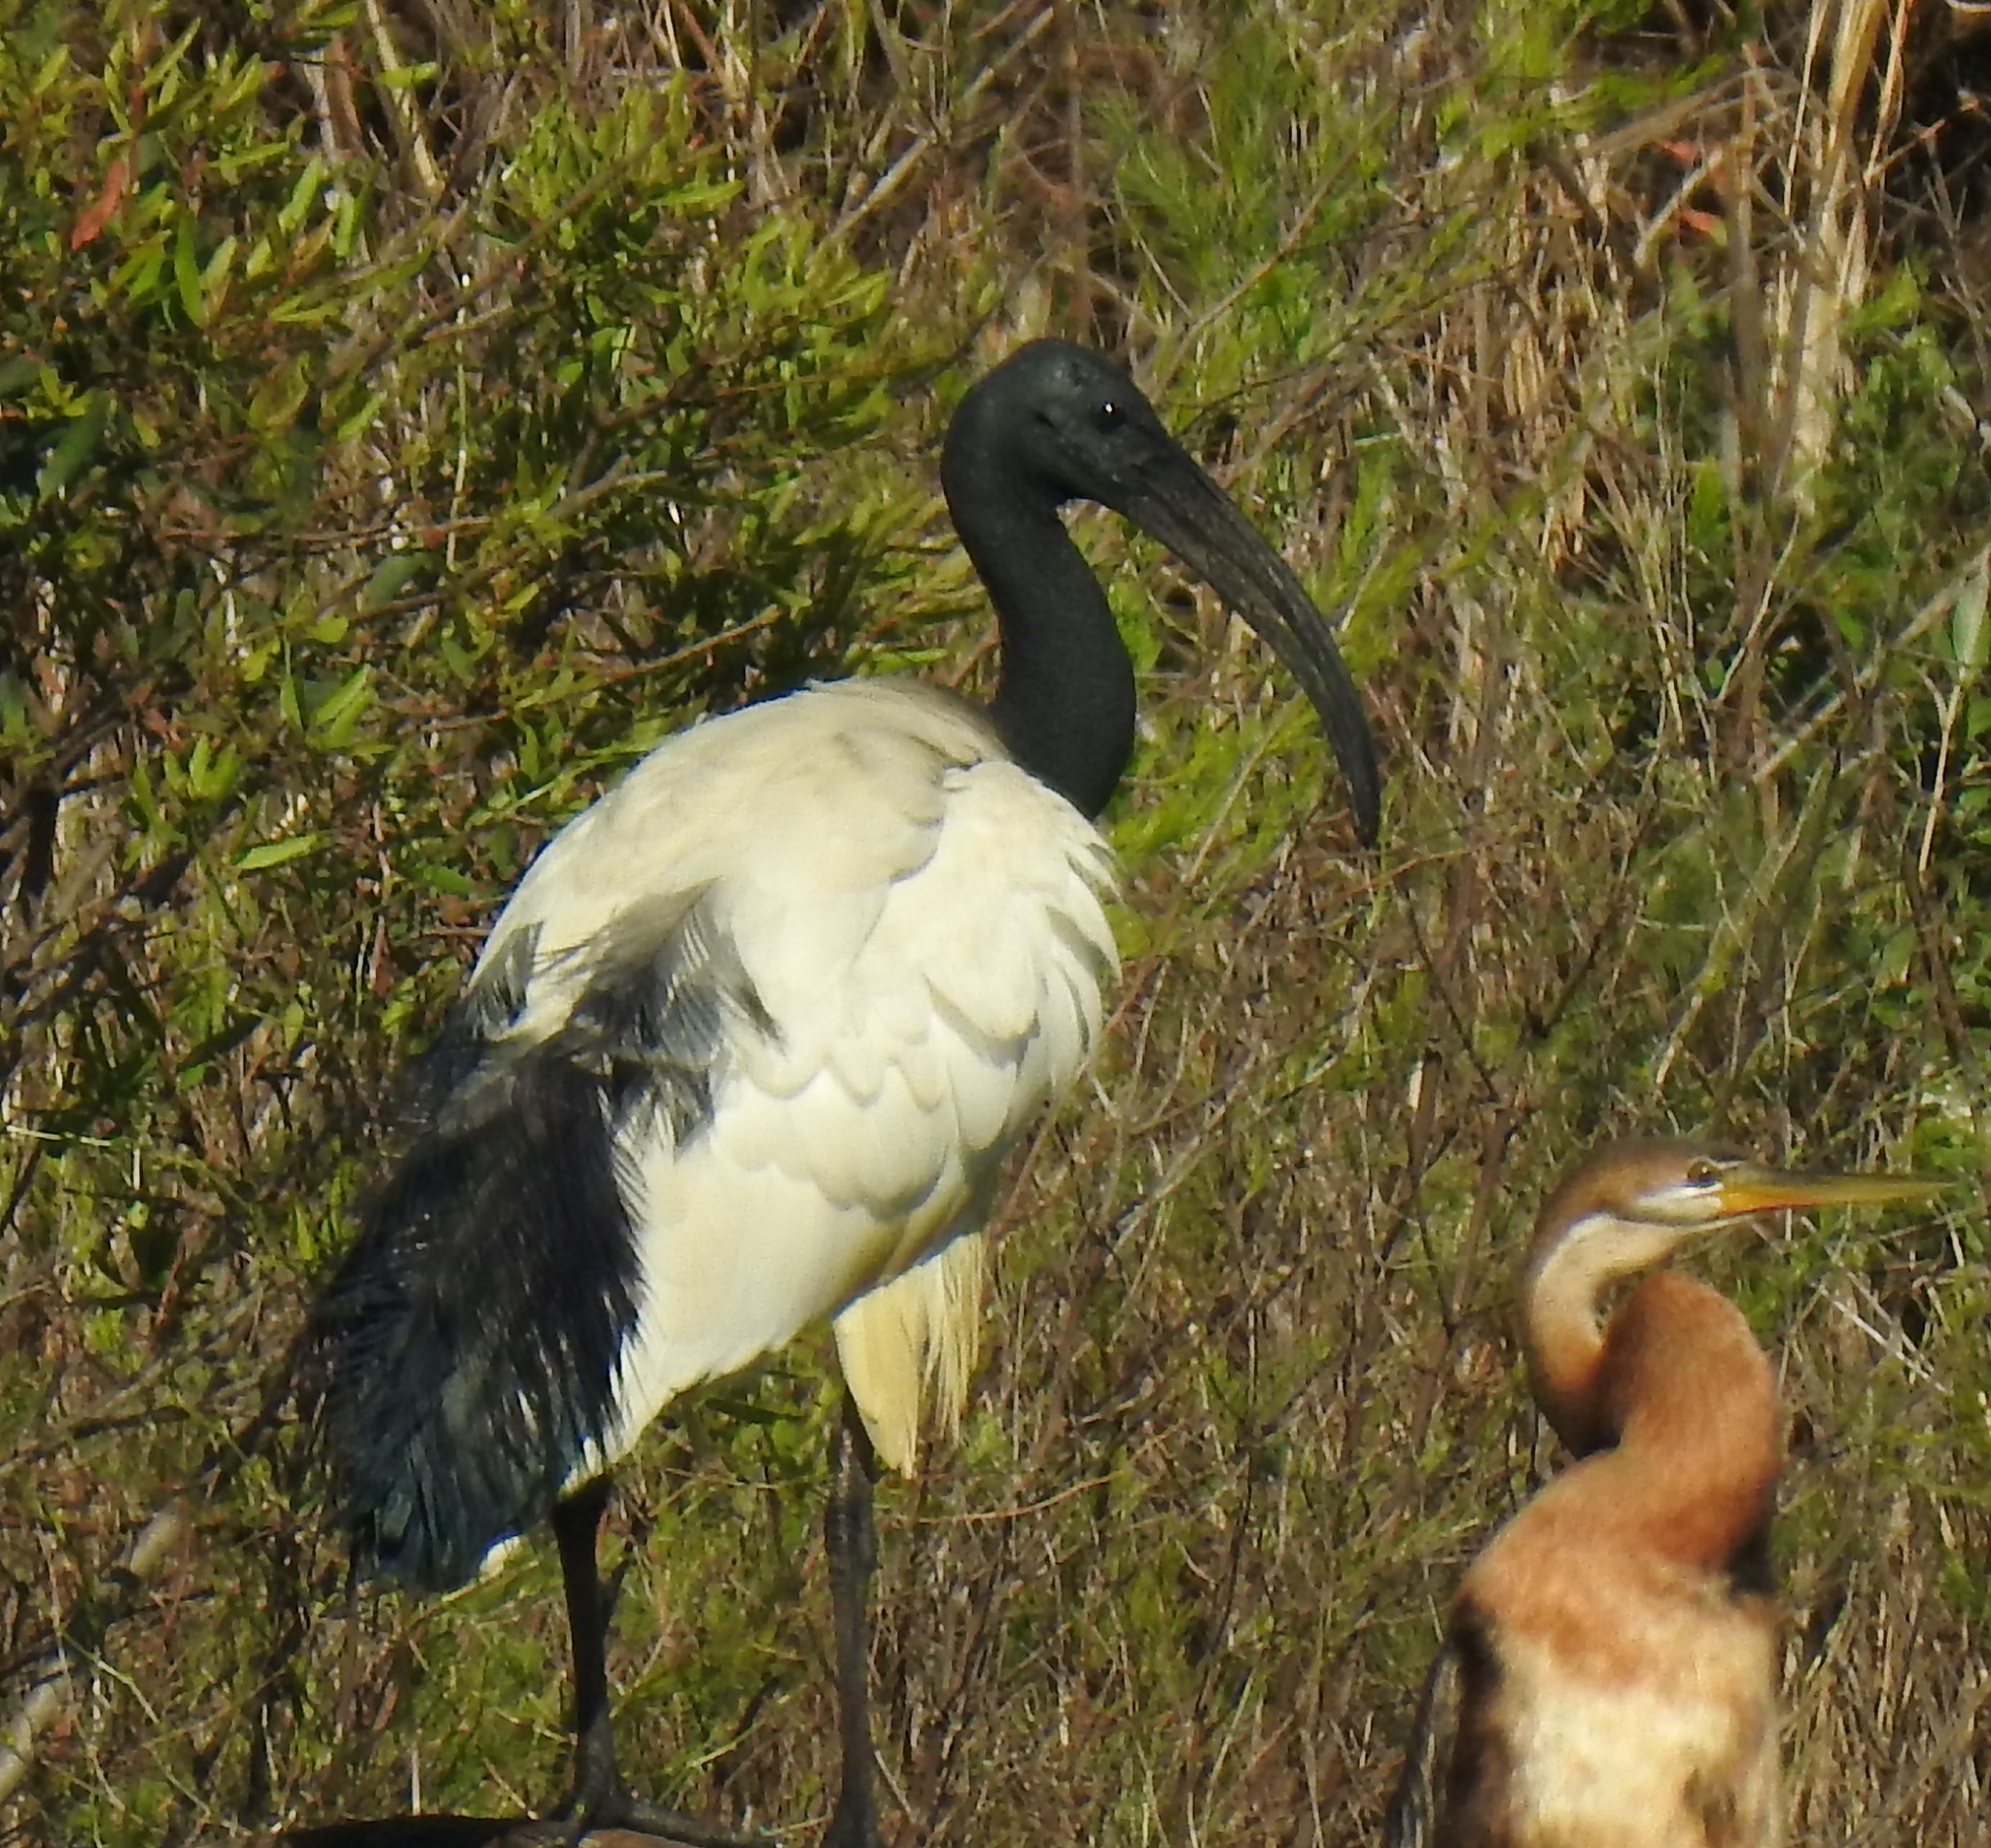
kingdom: Animalia
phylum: Chordata
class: Aves
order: Pelecaniformes
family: Threskiornithidae
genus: Threskiornis
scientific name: Threskiornis aethiopicus
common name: Sacred ibis
